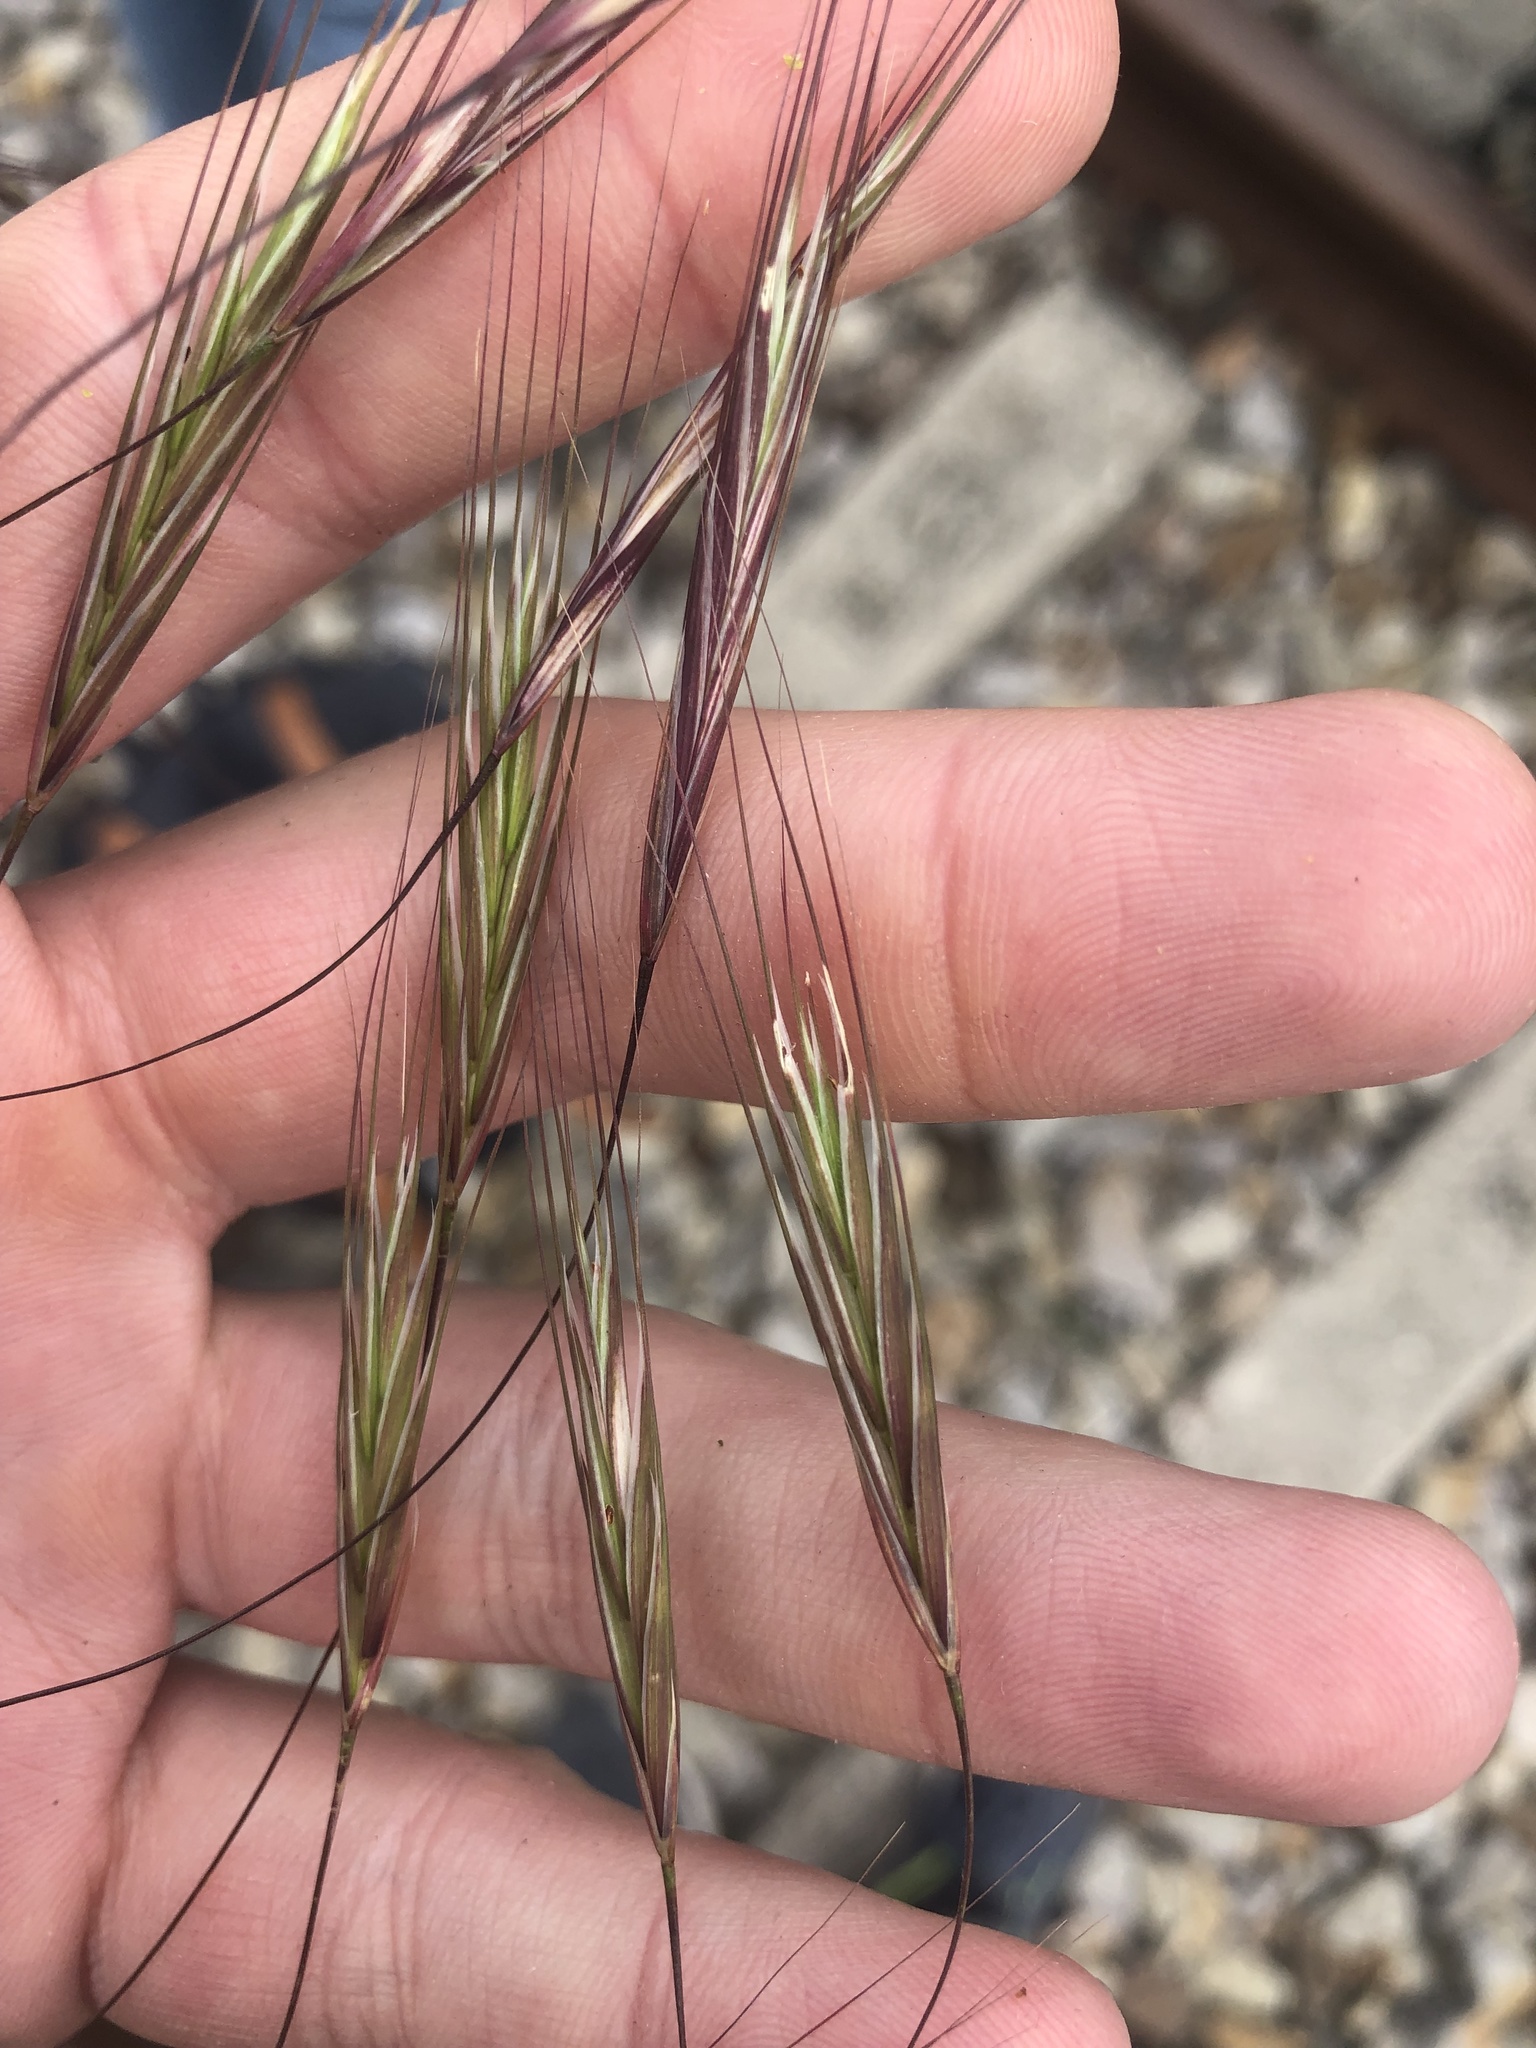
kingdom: Plantae
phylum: Tracheophyta
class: Liliopsida
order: Poales
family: Poaceae
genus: Bromus
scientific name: Bromus sterilis
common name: Poverty brome
